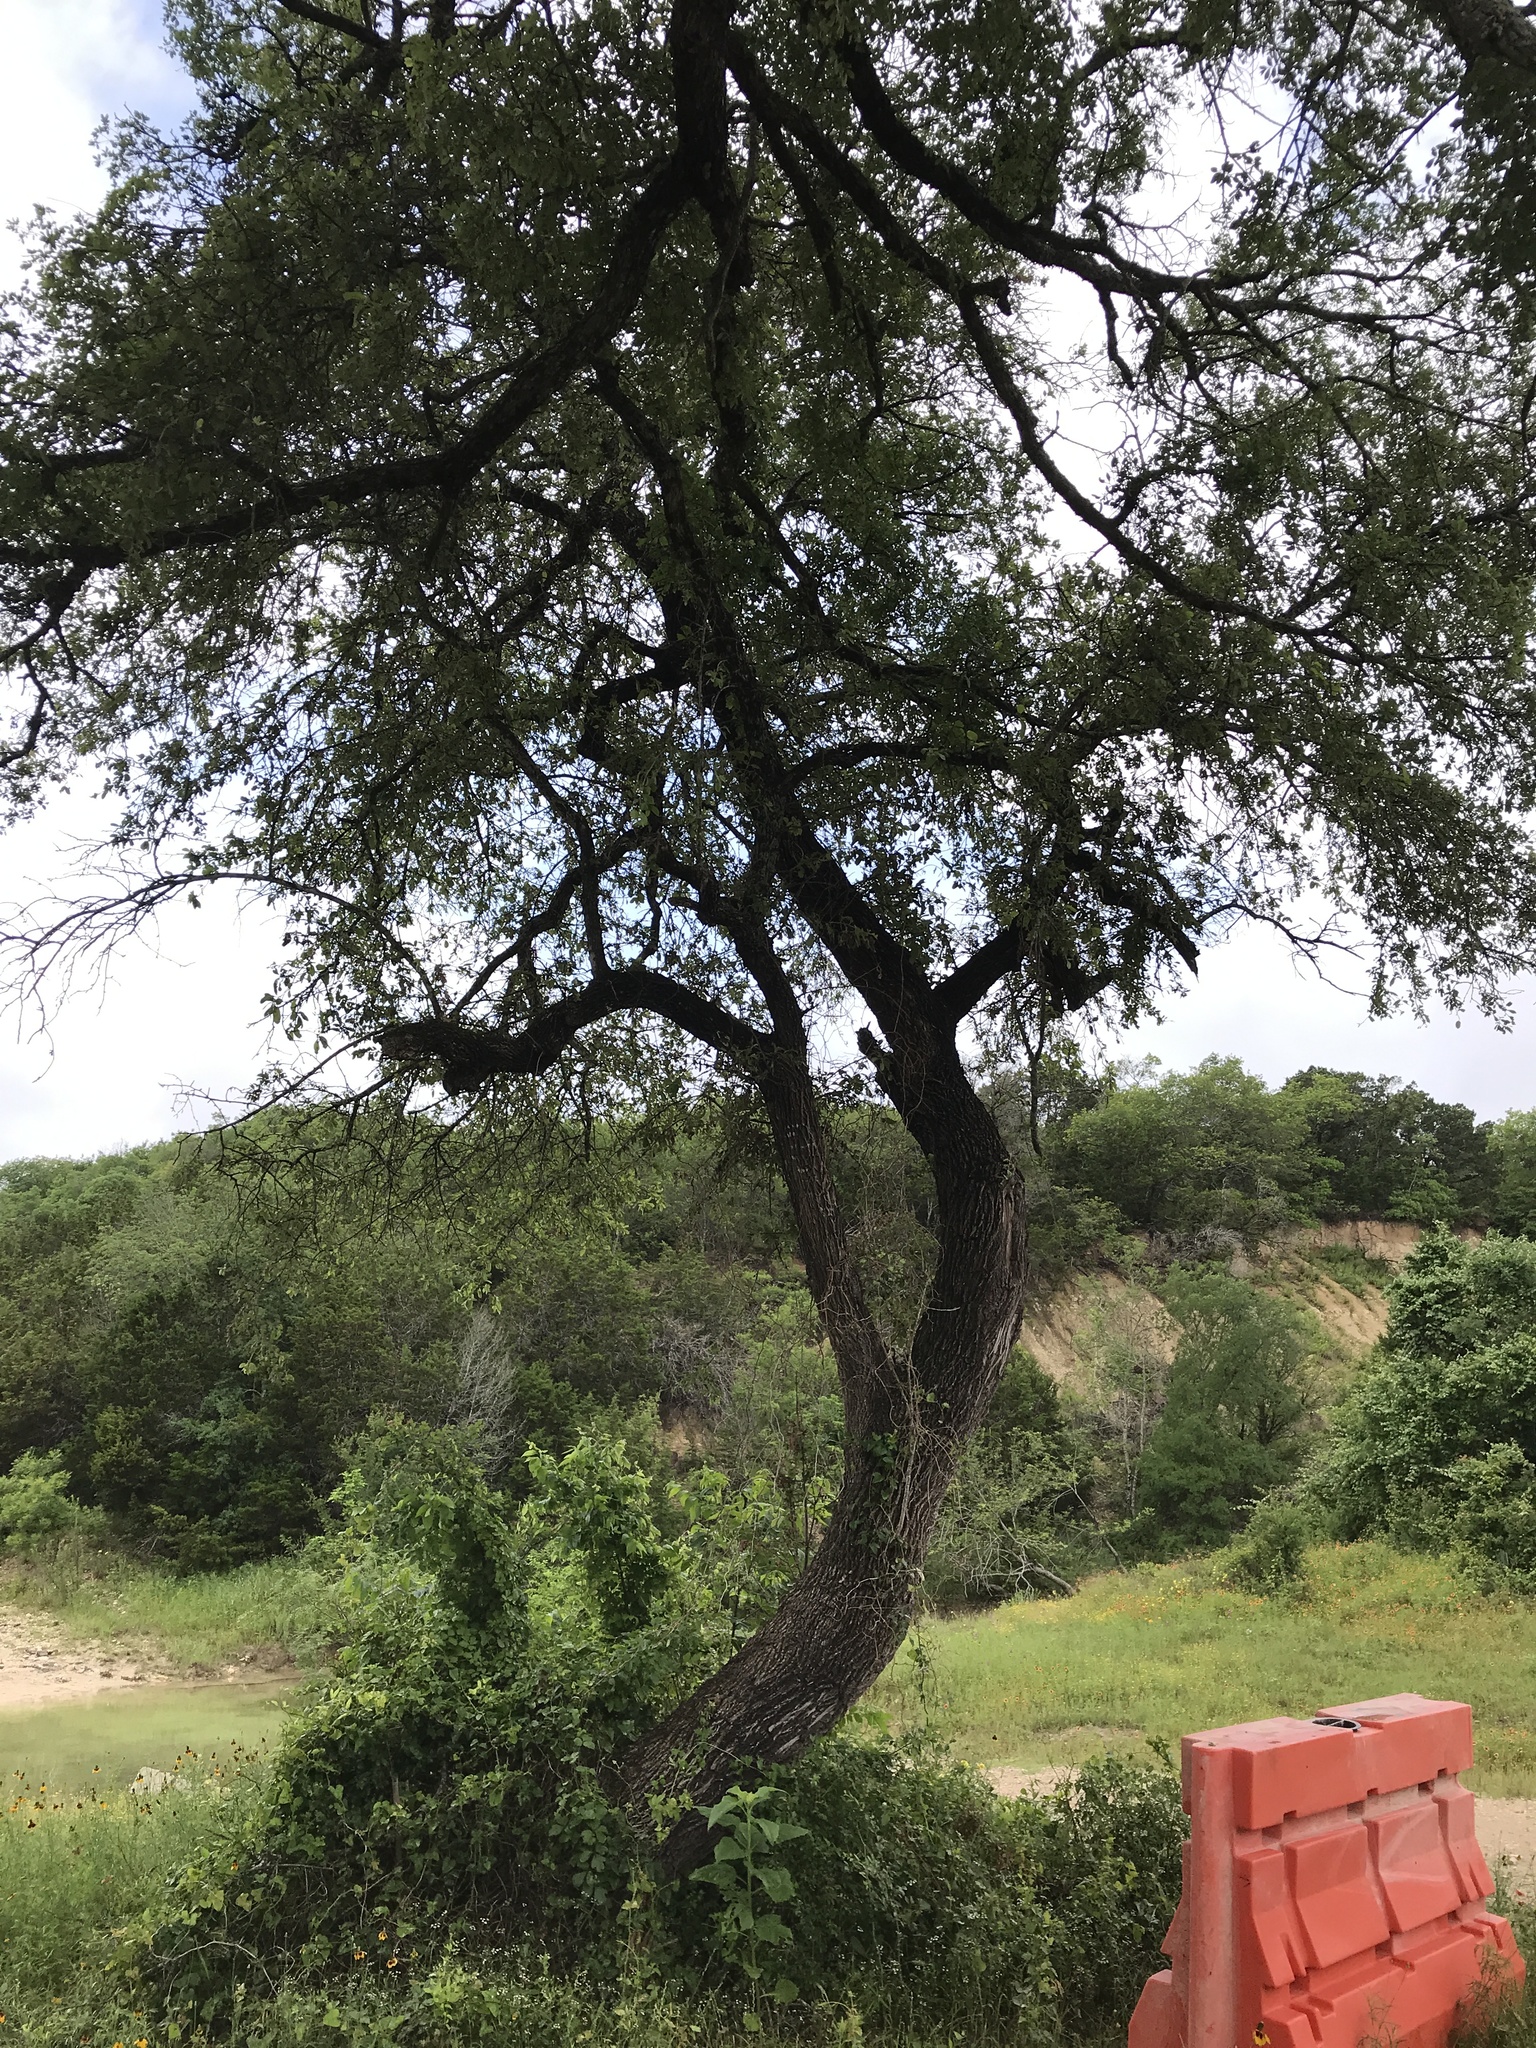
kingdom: Plantae
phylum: Tracheophyta
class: Magnoliopsida
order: Ericales
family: Sapotaceae
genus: Sideroxylon
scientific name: Sideroxylon lanuginosum
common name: Chittamwood
